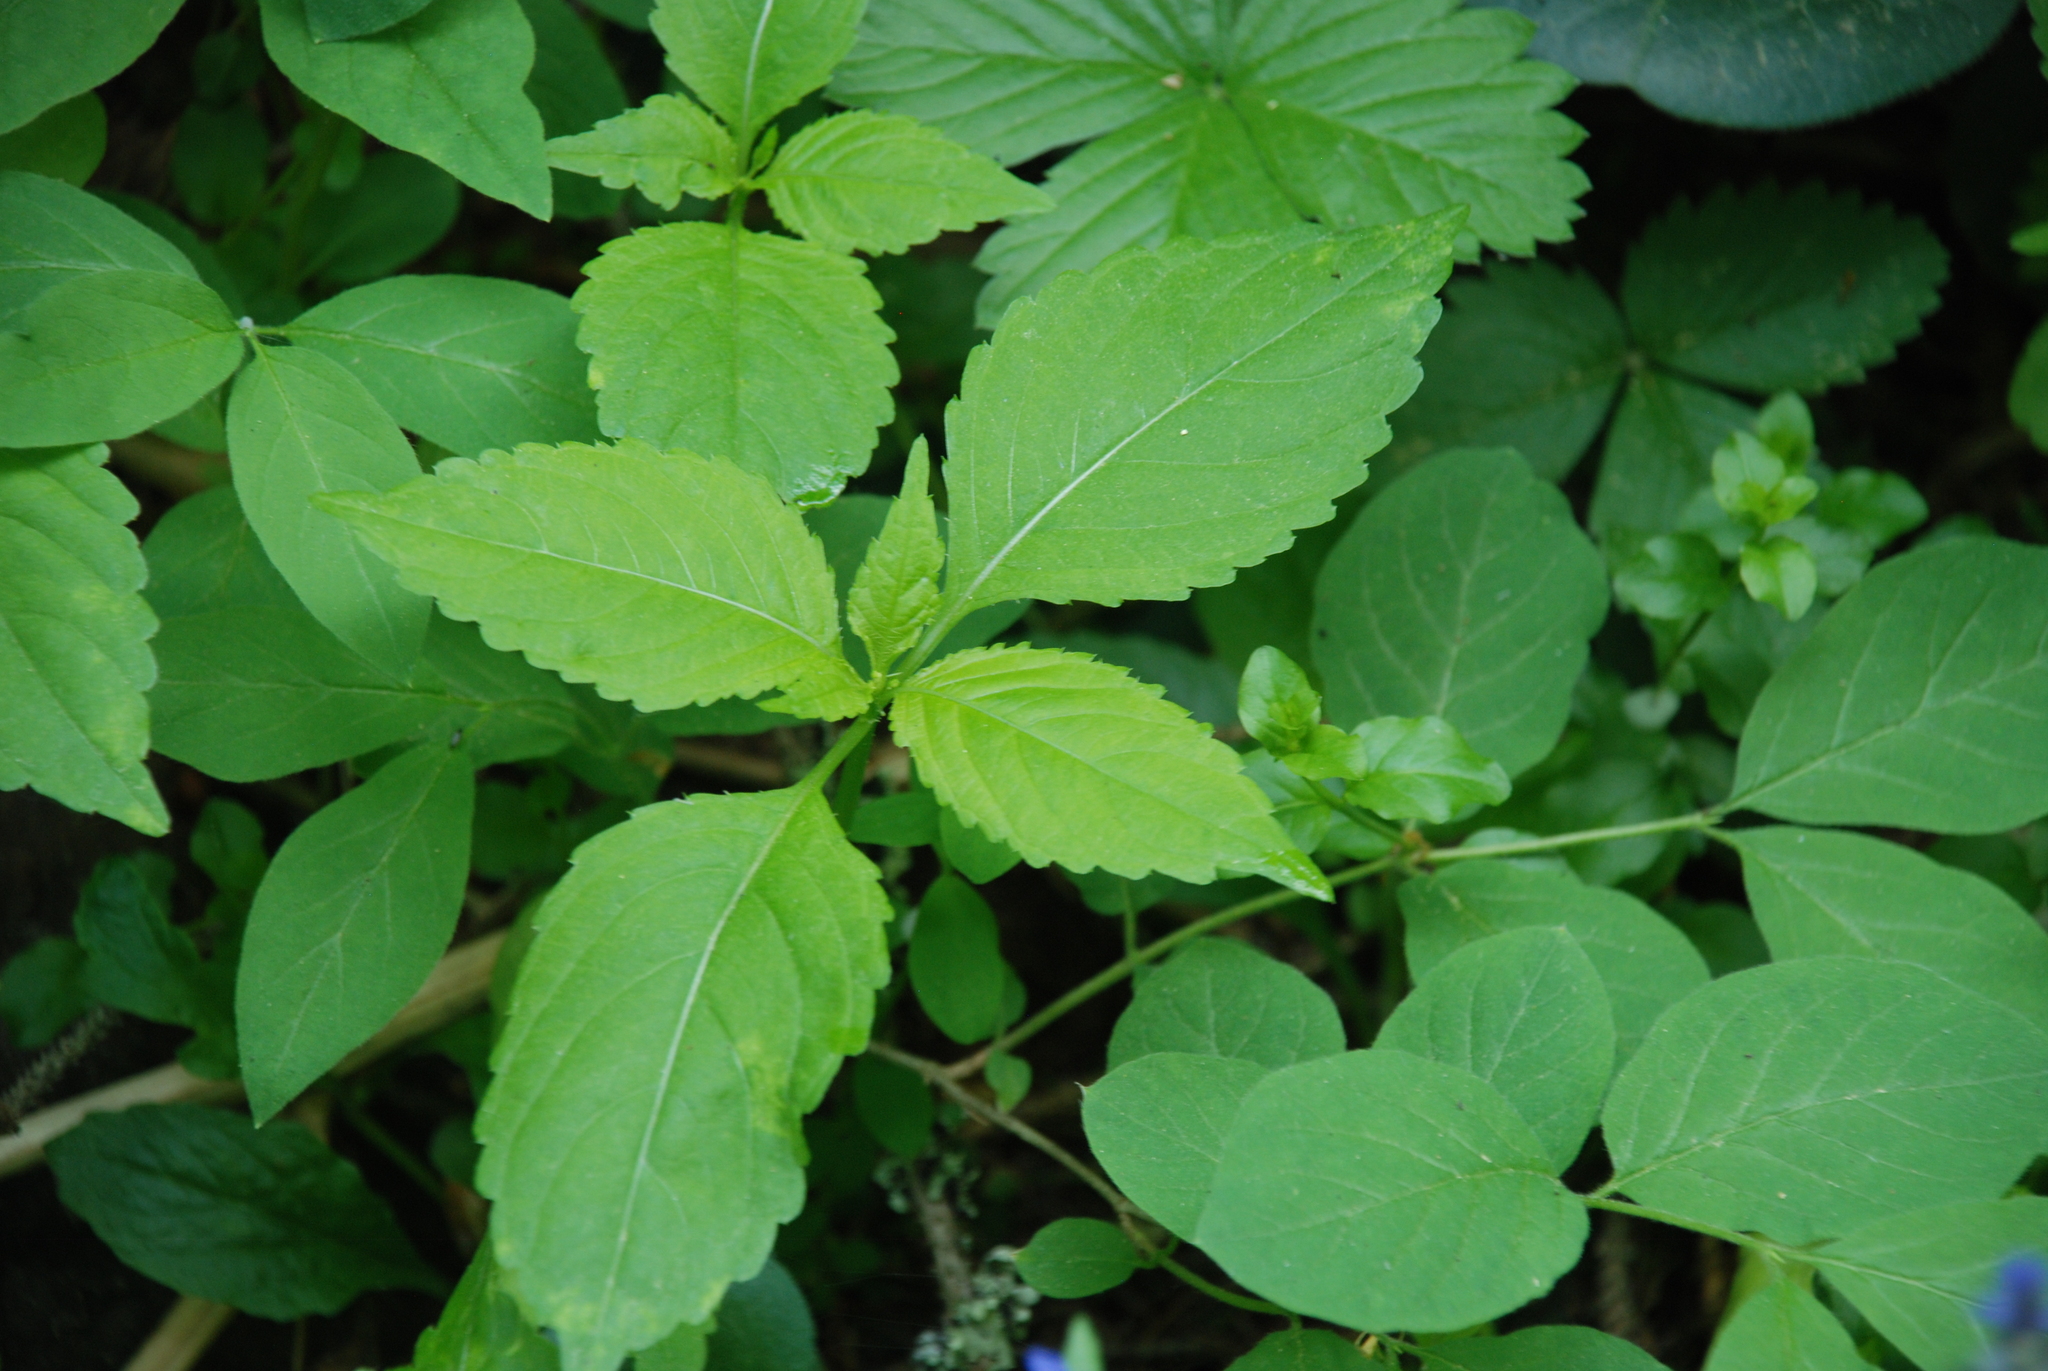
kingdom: Plantae
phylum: Tracheophyta
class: Magnoliopsida
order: Ericales
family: Balsaminaceae
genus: Impatiens
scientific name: Impatiens parviflora
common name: Small balsam
